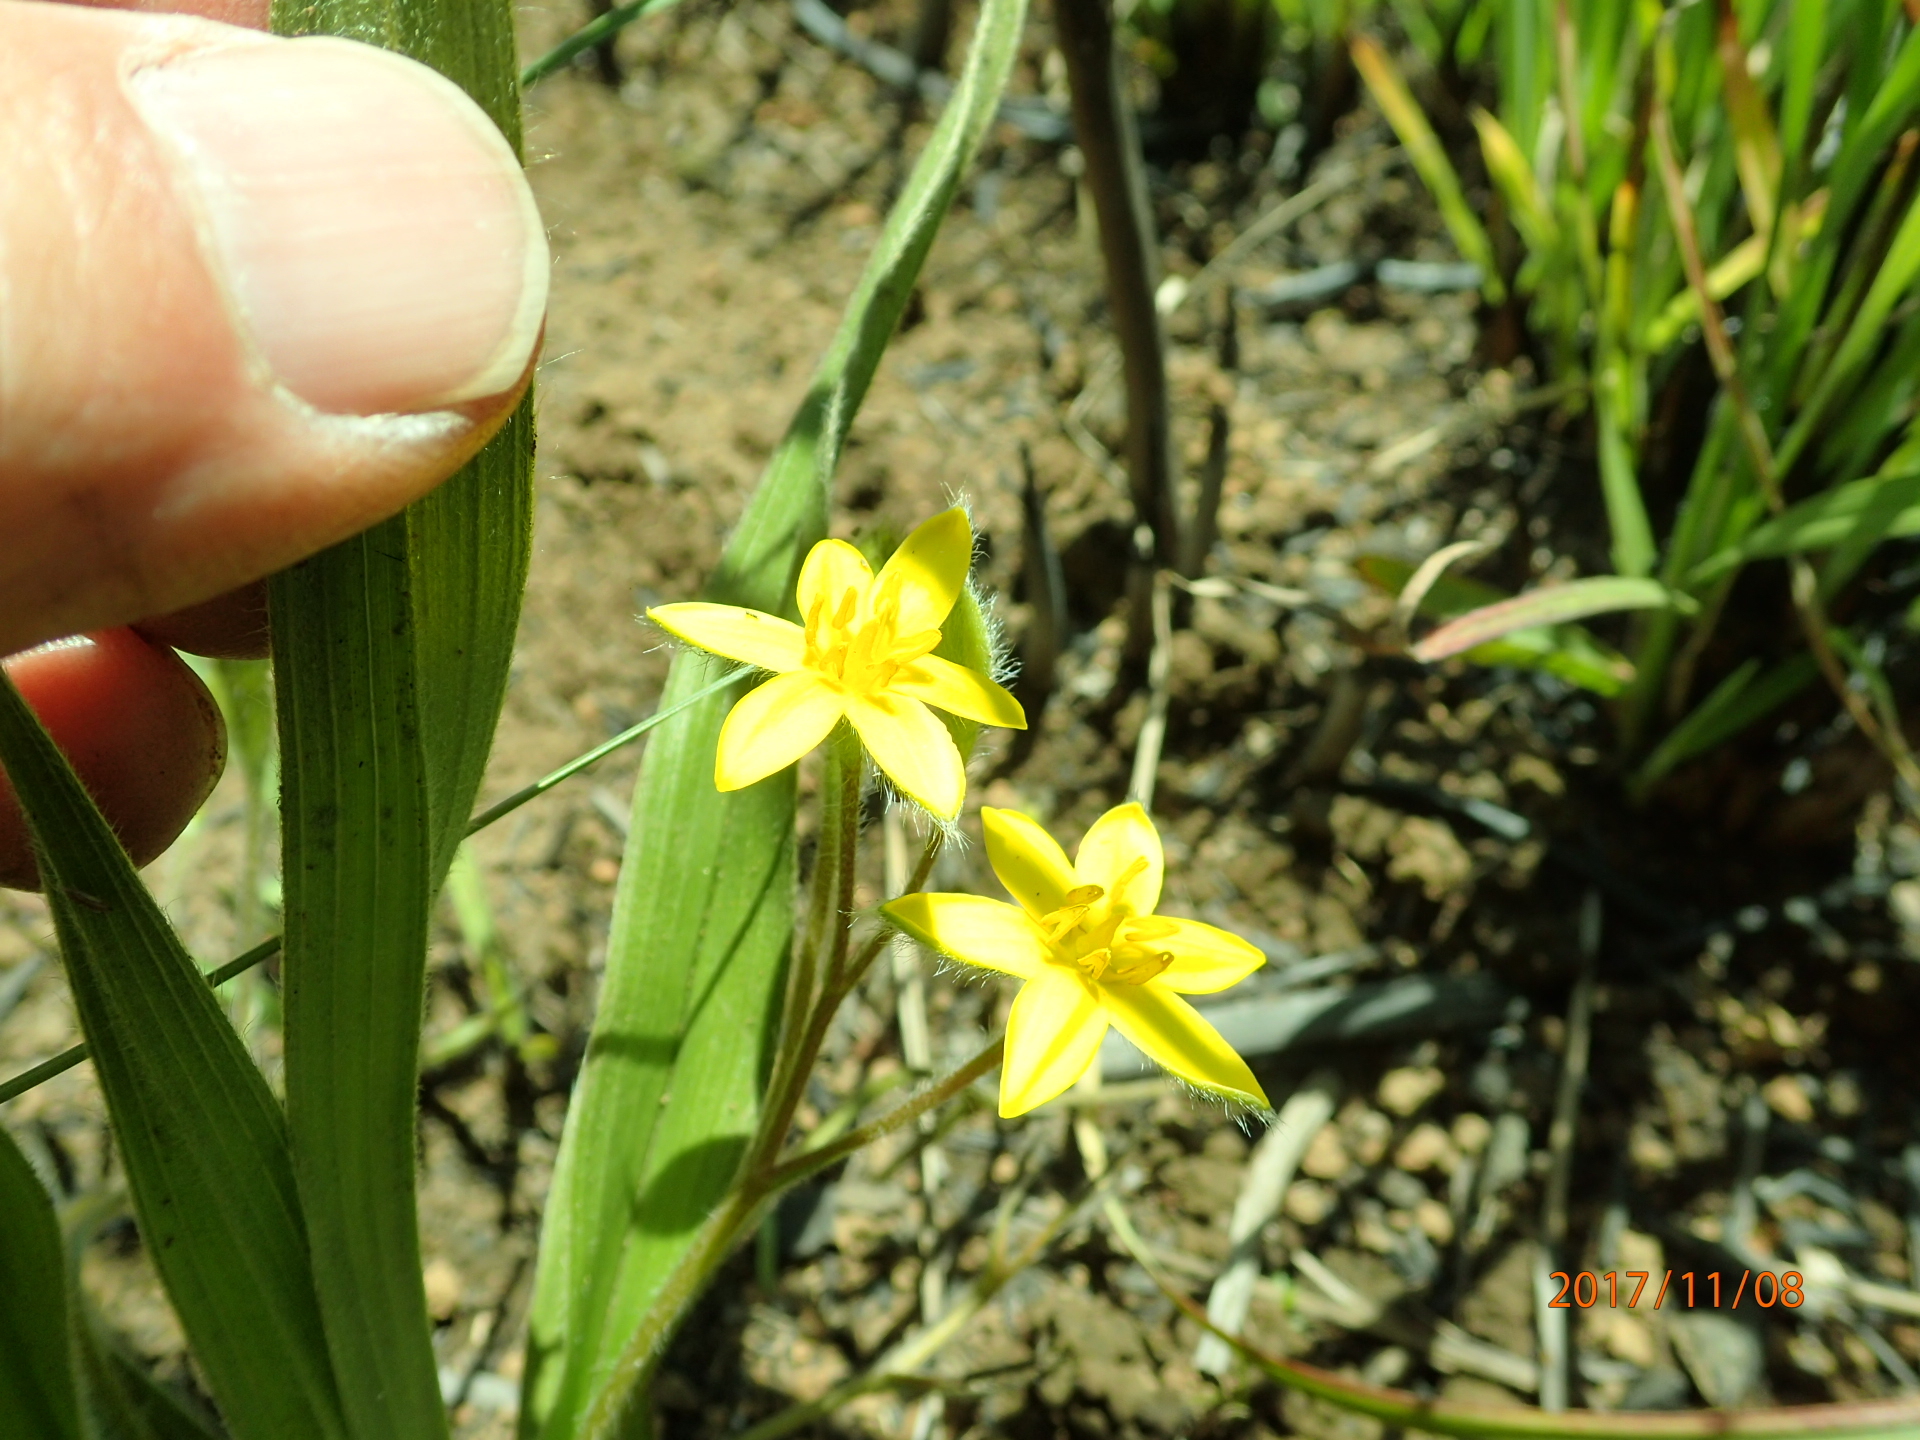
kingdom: Plantae
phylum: Tracheophyta
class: Liliopsida
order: Asparagales
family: Hypoxidaceae
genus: Hypoxis
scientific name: Hypoxis argentea
